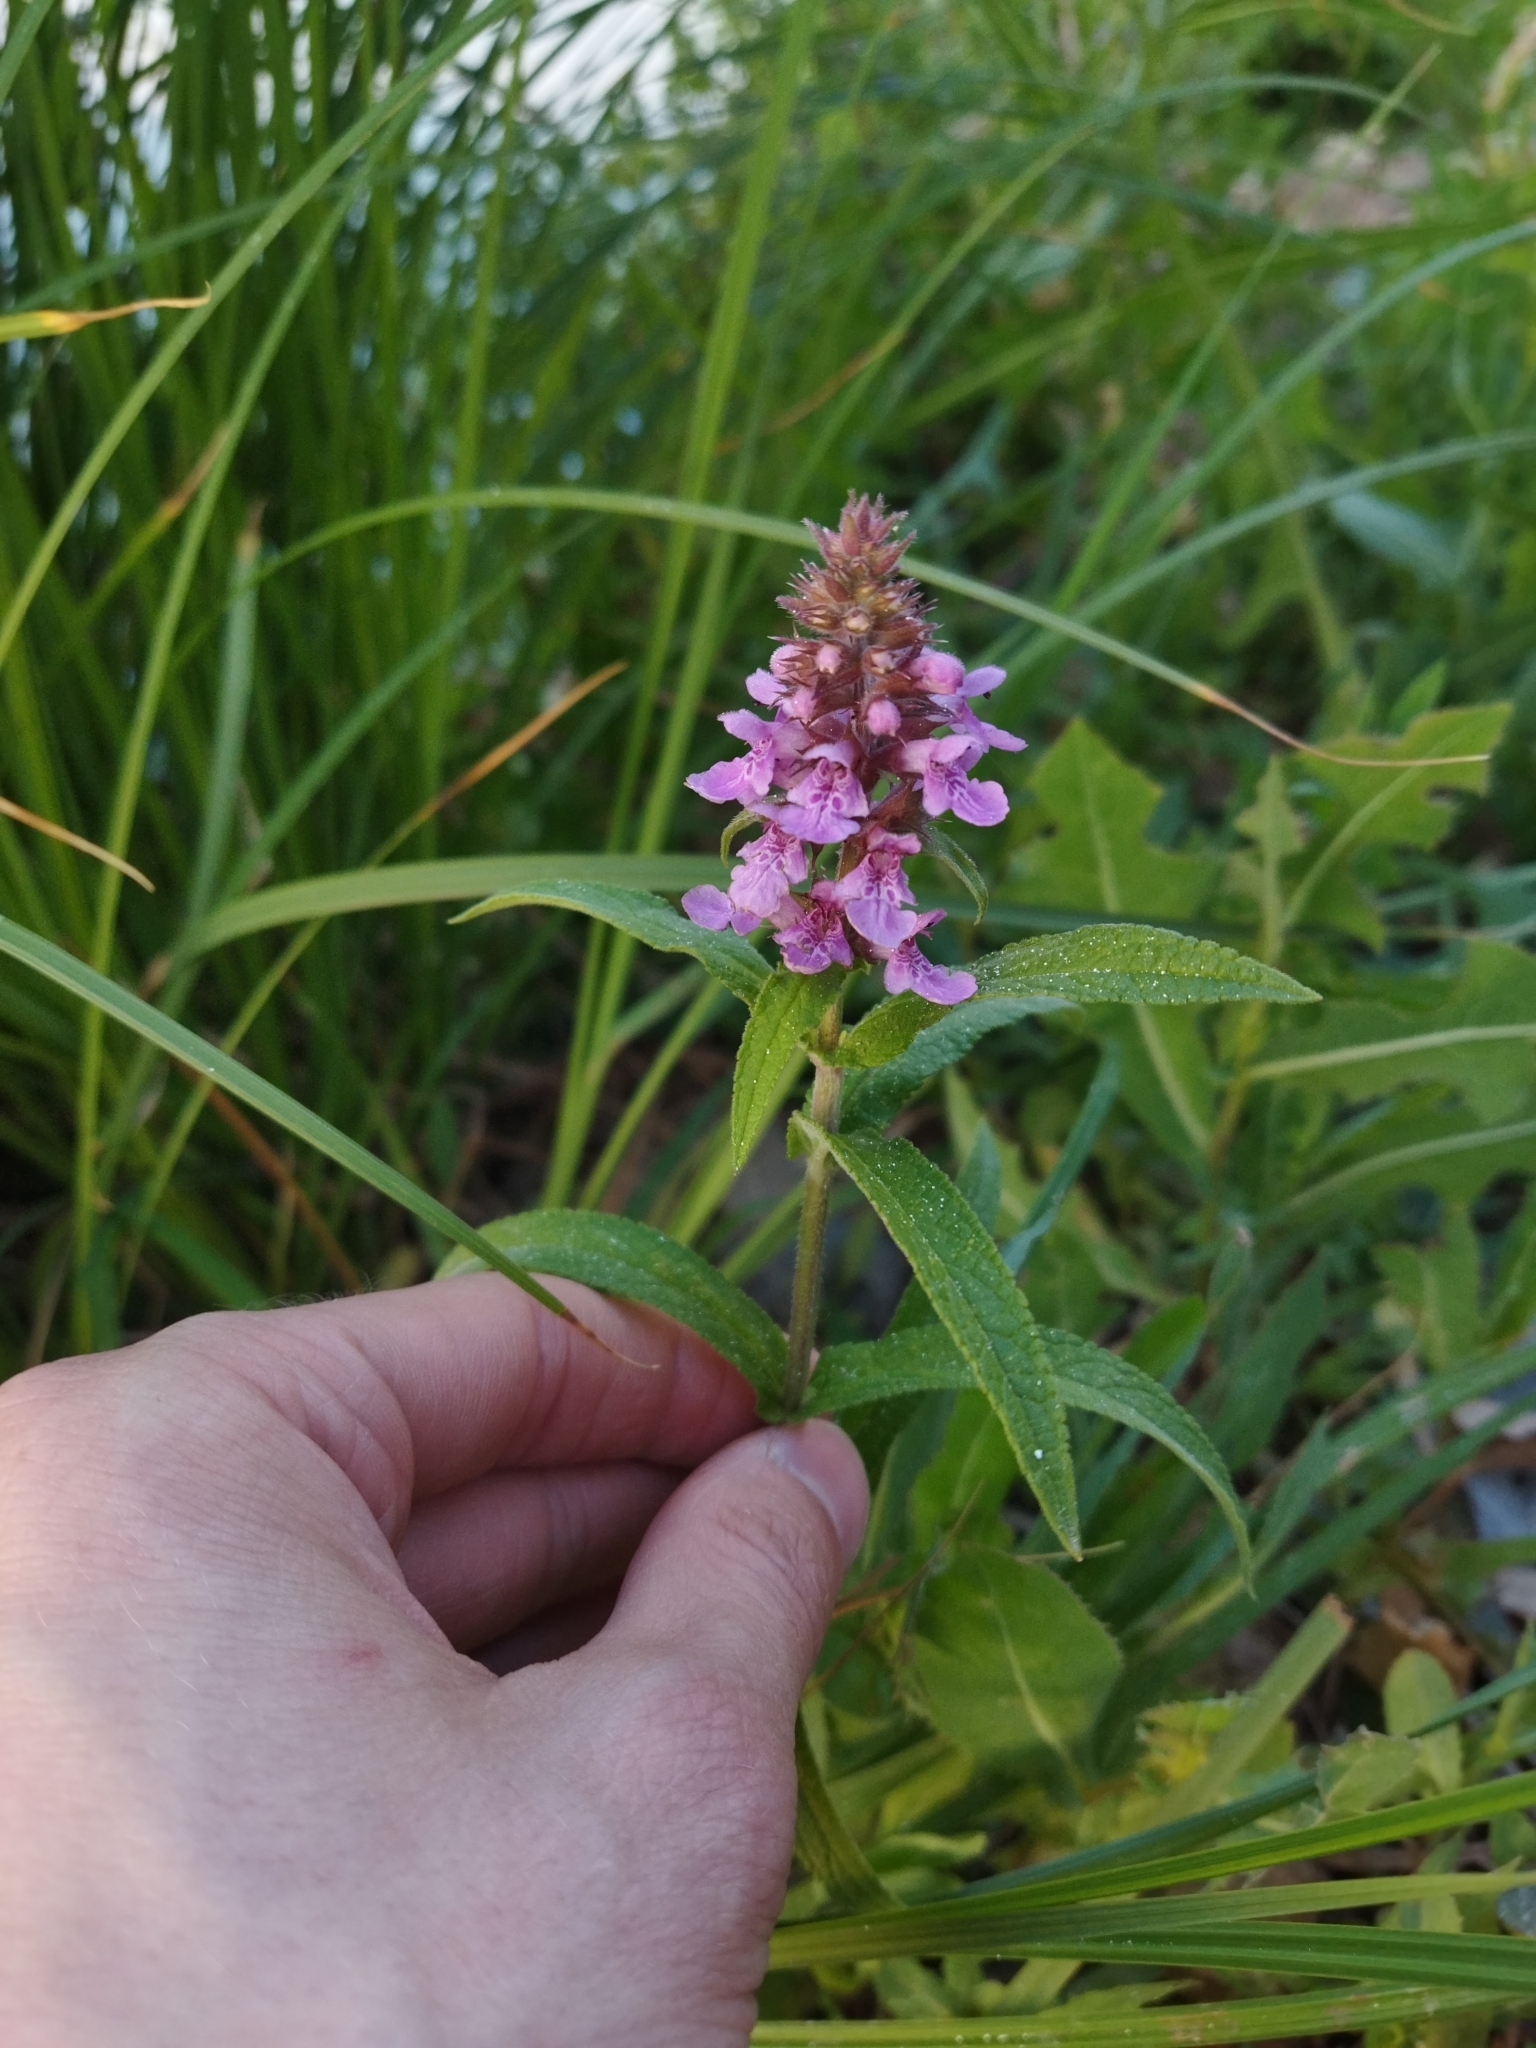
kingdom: Plantae
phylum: Tracheophyta
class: Magnoliopsida
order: Lamiales
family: Lamiaceae
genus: Stachys
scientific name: Stachys palustris
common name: Marsh woundwort
